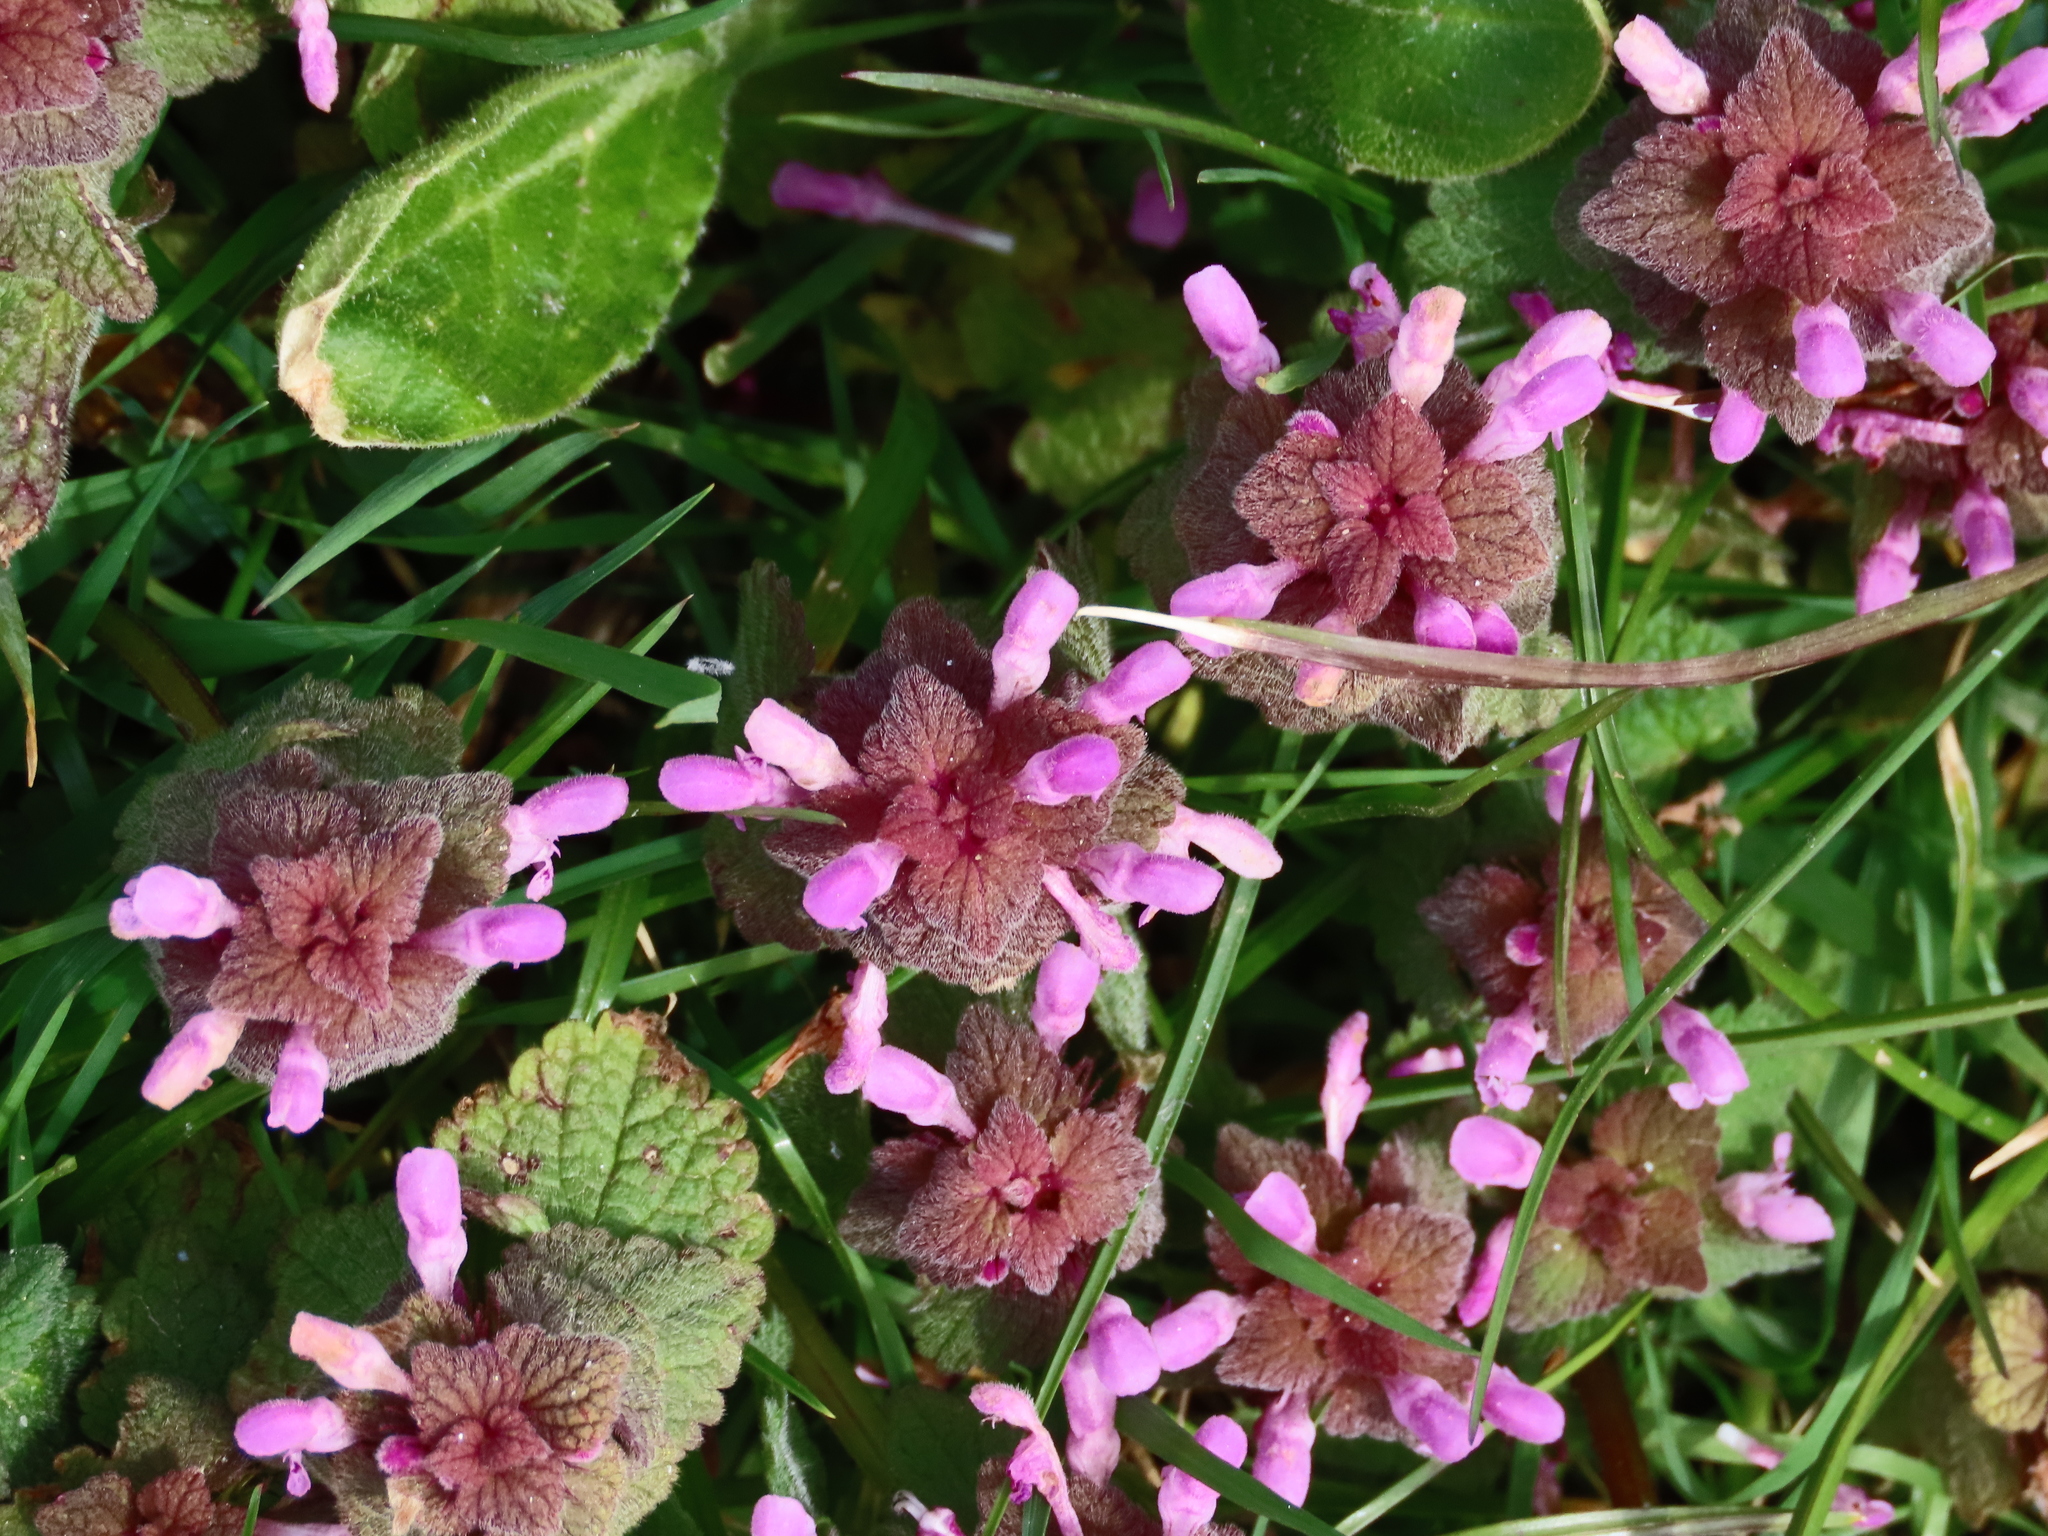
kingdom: Plantae
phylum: Tracheophyta
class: Magnoliopsida
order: Lamiales
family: Lamiaceae
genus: Lamium
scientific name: Lamium purpureum
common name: Red dead-nettle
